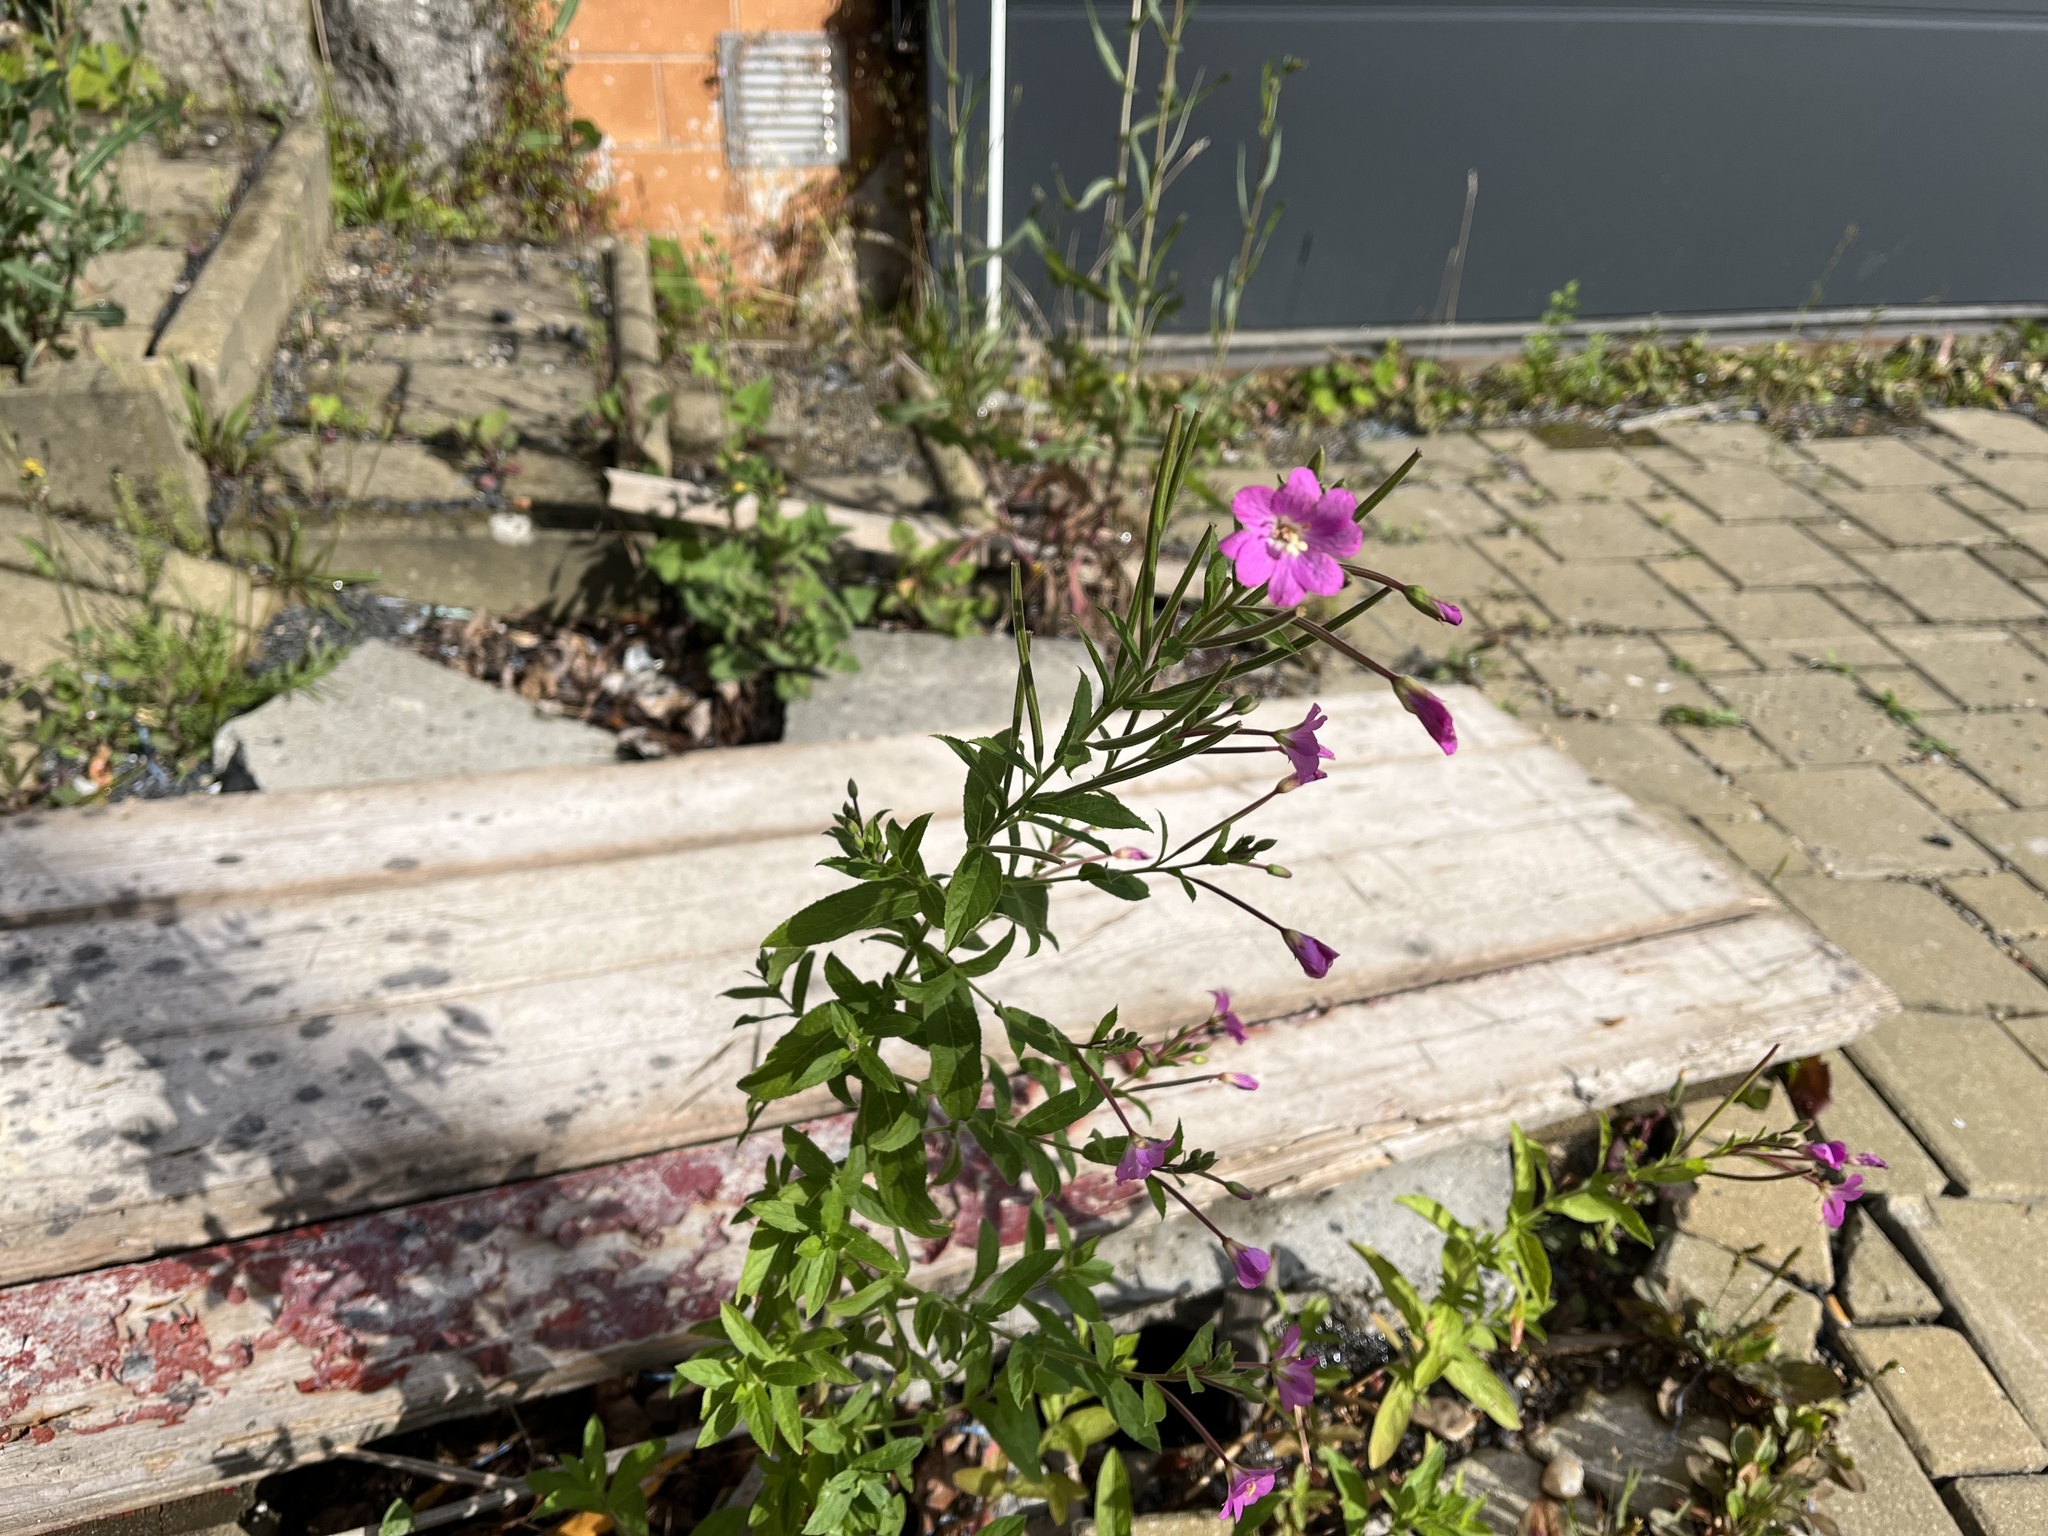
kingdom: Plantae
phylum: Tracheophyta
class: Magnoliopsida
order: Myrtales
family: Onagraceae
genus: Epilobium
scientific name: Epilobium hirsutum
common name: Great willowherb
